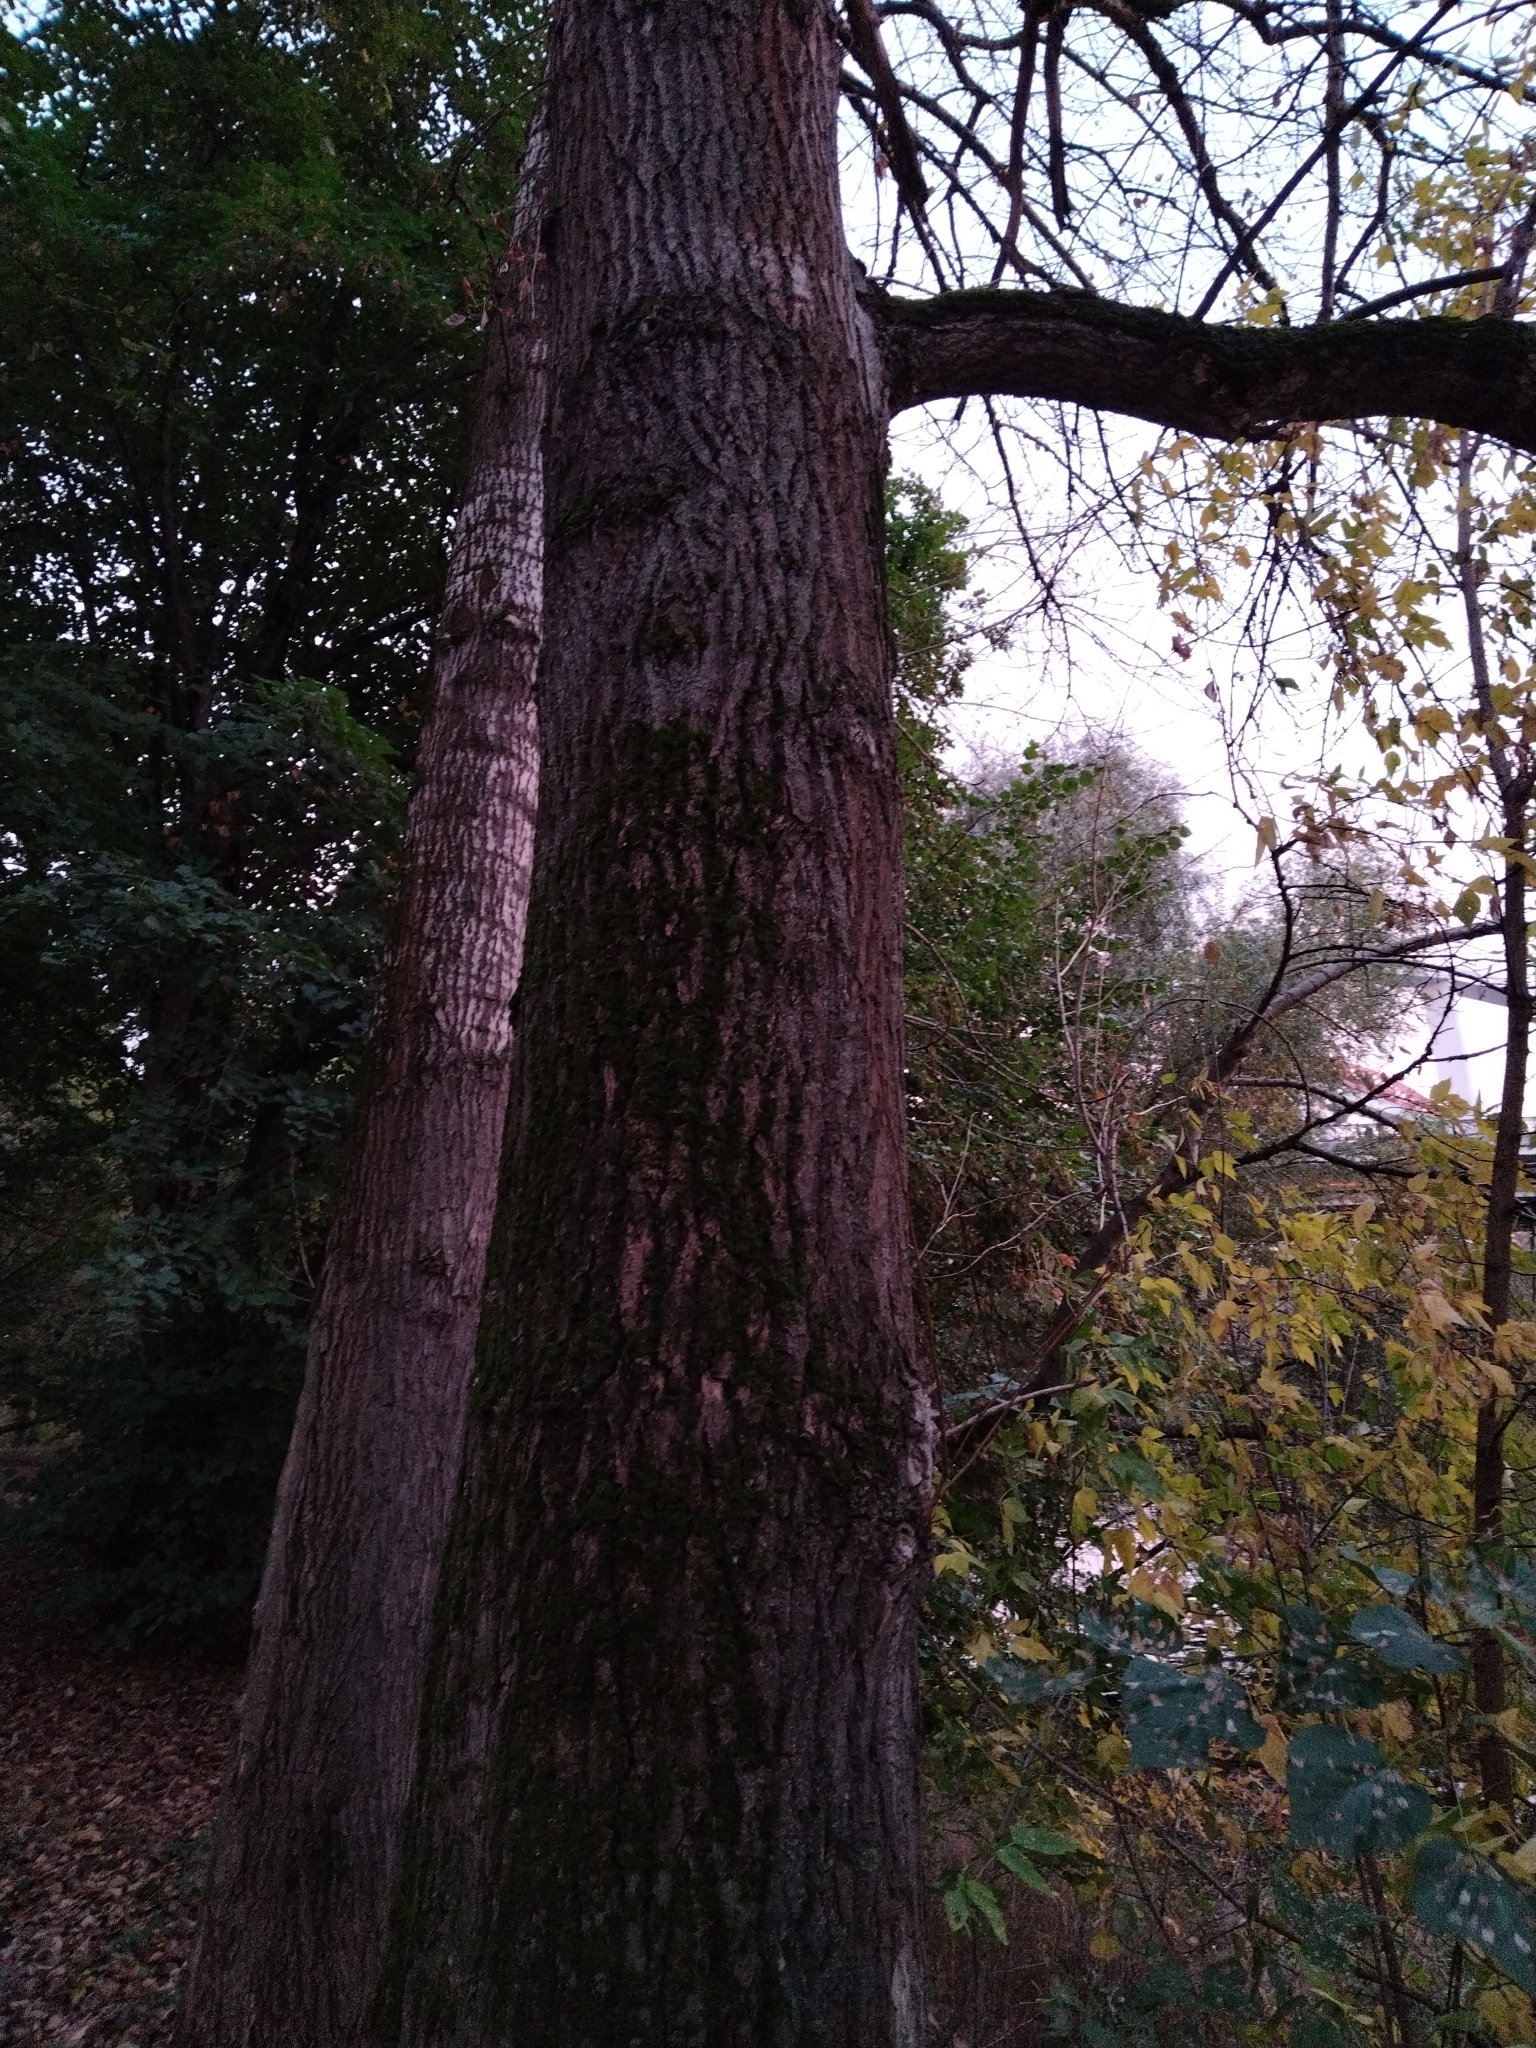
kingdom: Plantae
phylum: Tracheophyta
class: Magnoliopsida
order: Malpighiales
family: Salicaceae
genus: Populus
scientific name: Populus suaveolens
